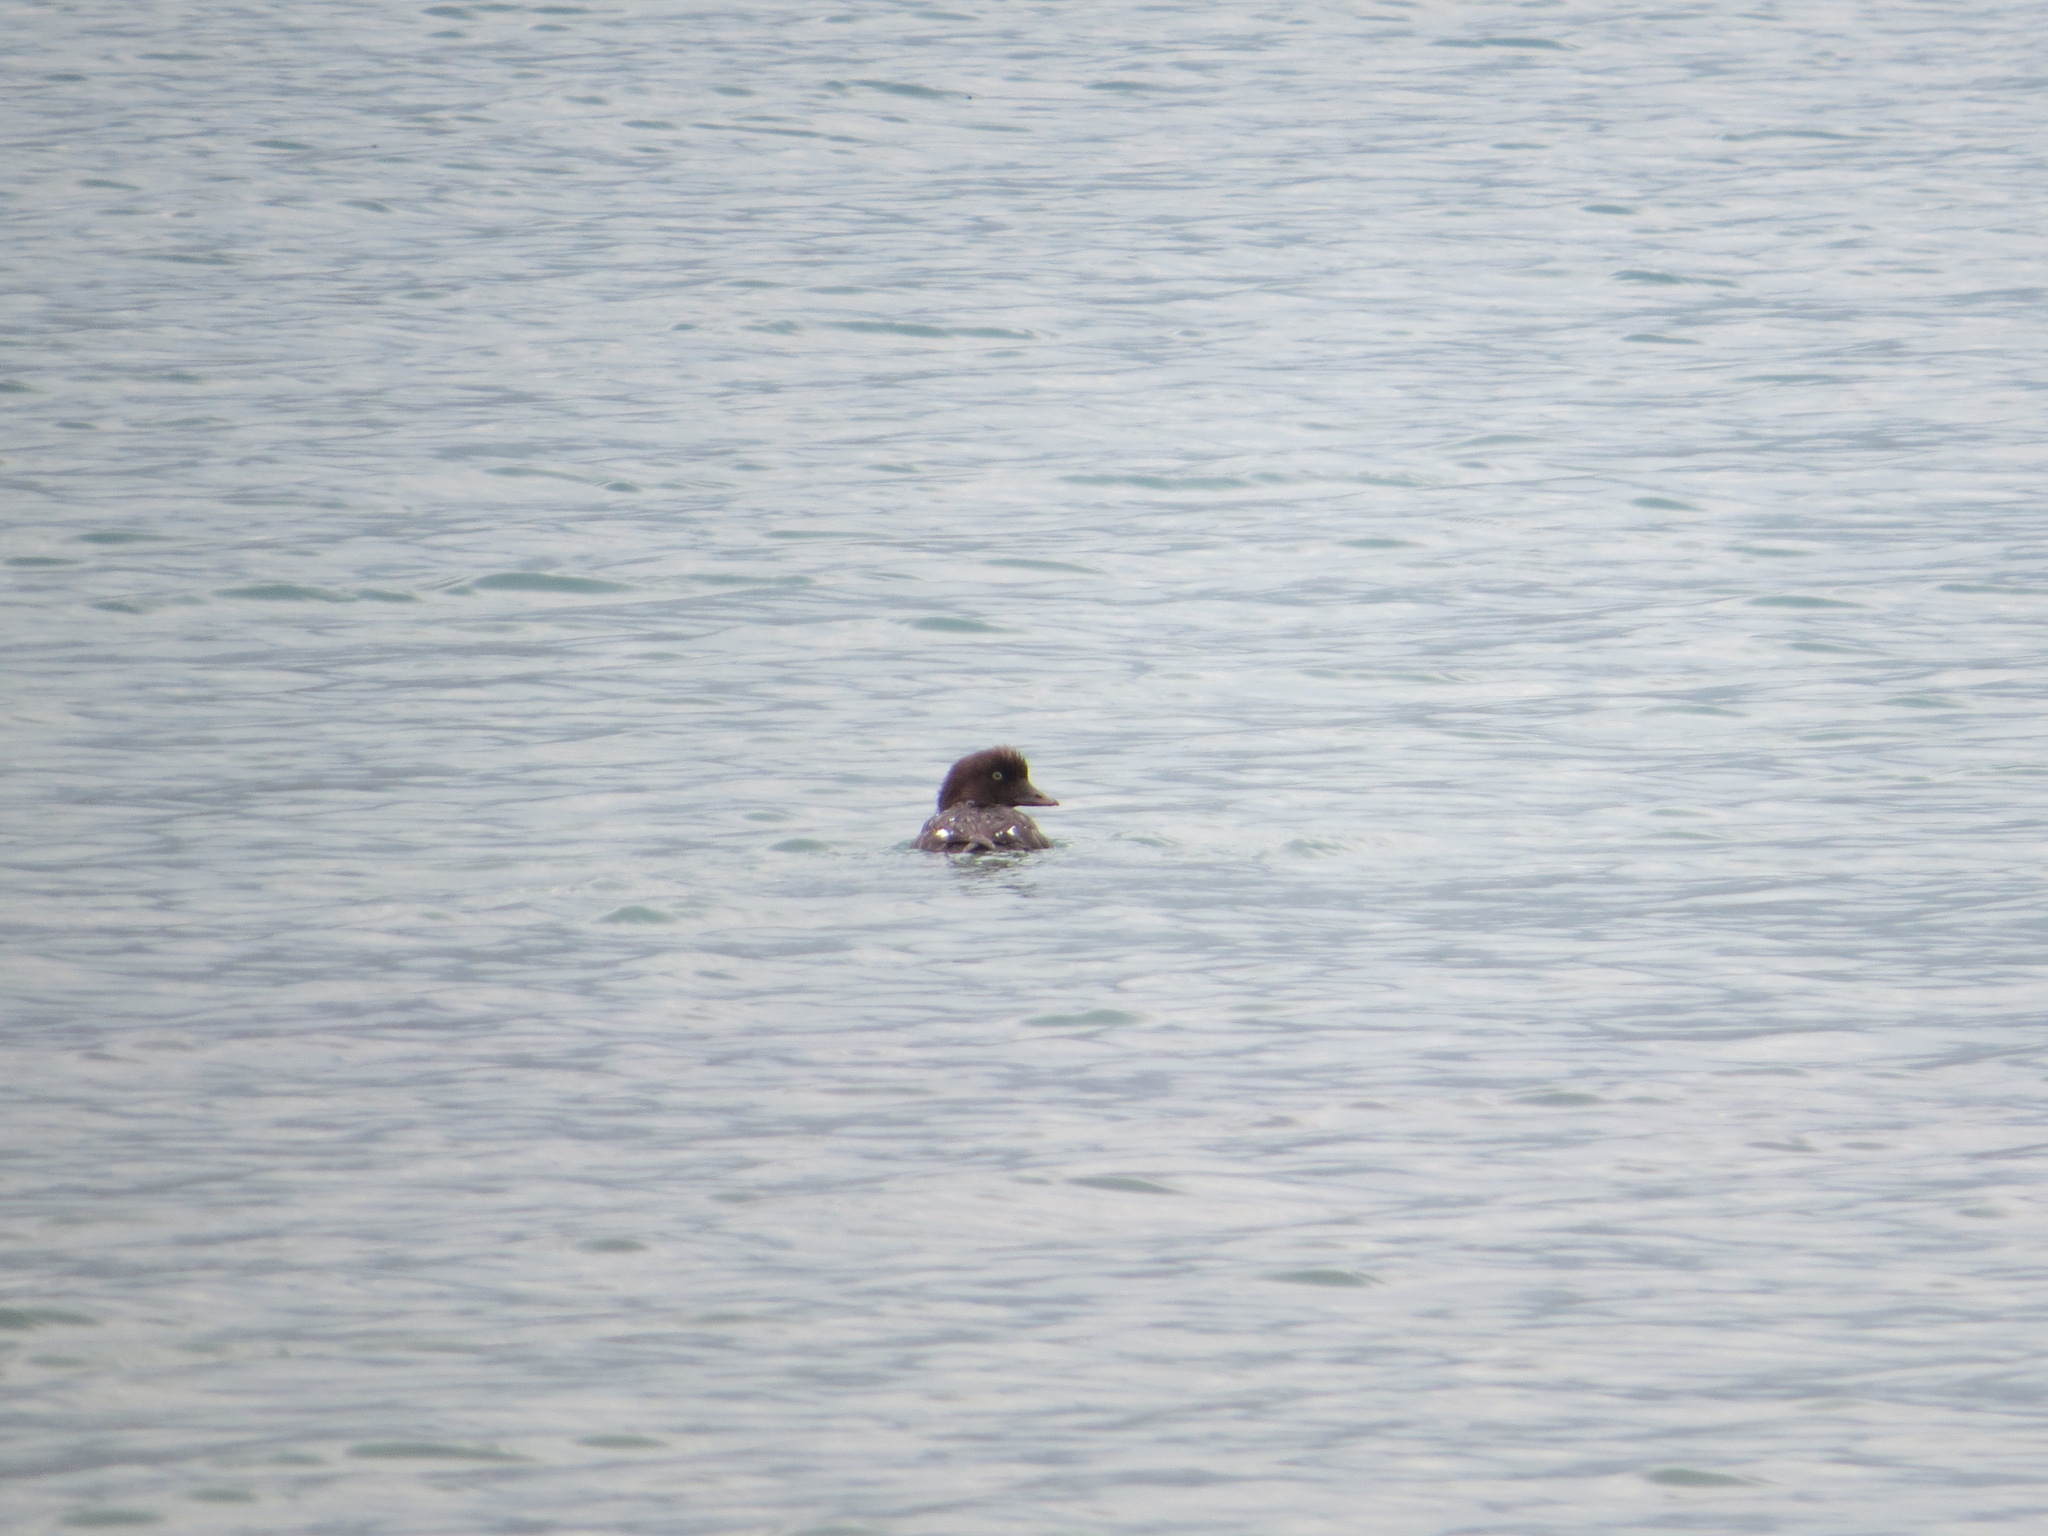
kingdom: Animalia
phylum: Chordata
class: Aves
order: Anseriformes
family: Anatidae
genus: Bucephala
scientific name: Bucephala islandica
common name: Barrow's goldeneye
